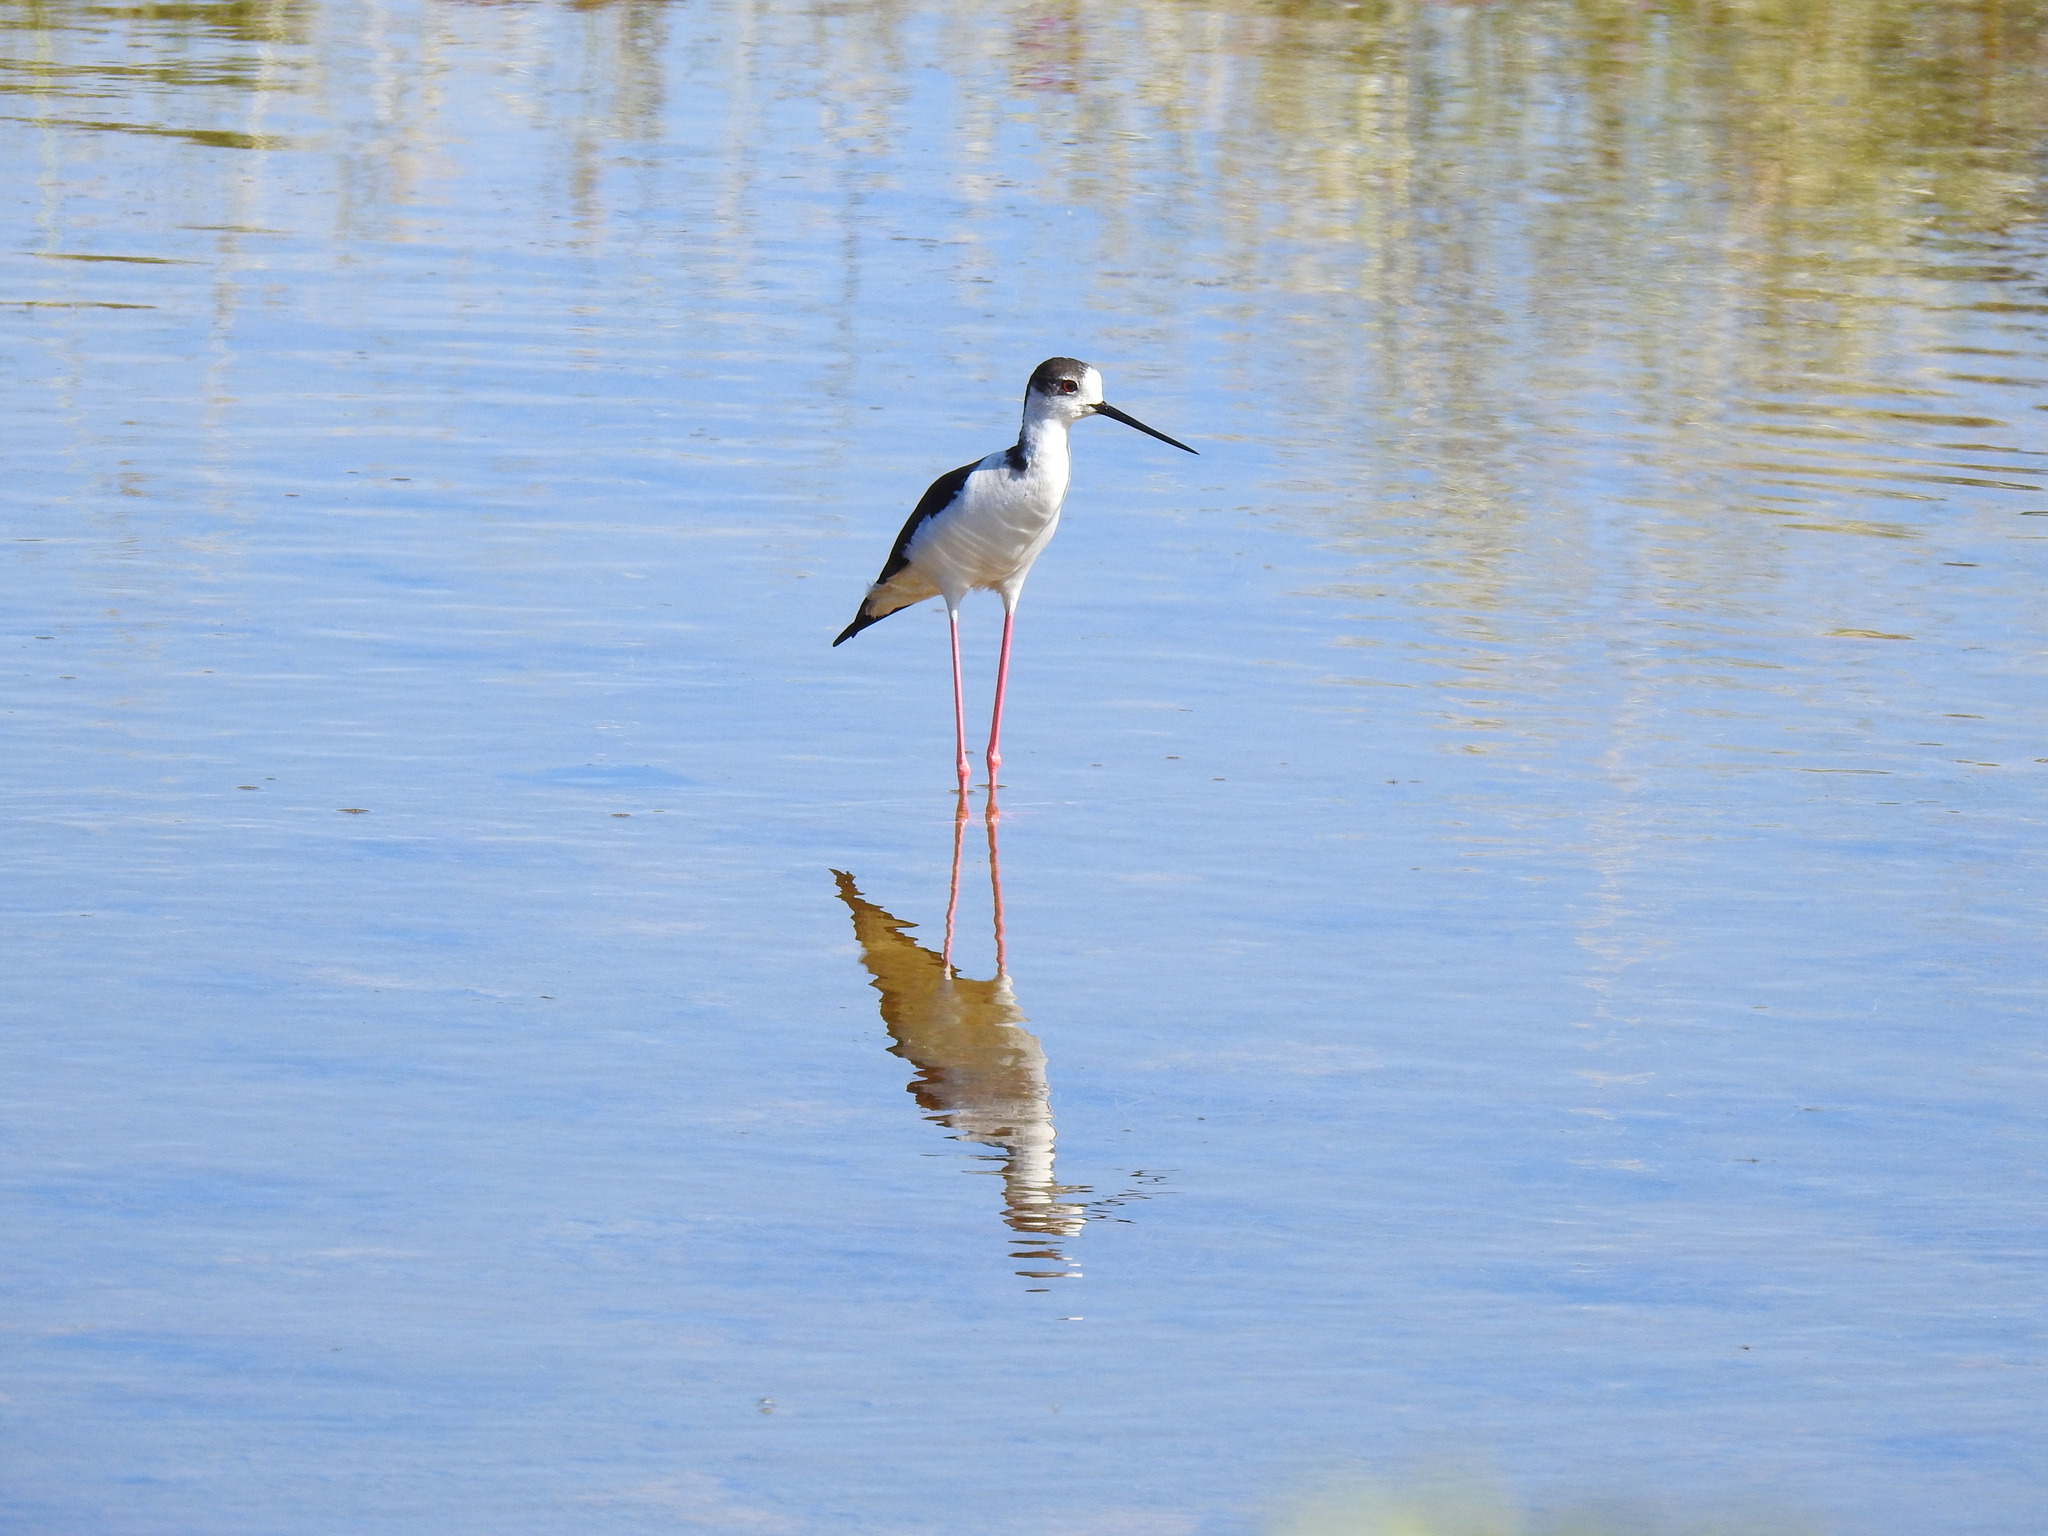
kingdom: Animalia
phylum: Chordata
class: Aves
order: Charadriiformes
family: Recurvirostridae
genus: Himantopus
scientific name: Himantopus himantopus
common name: Black-winged stilt
